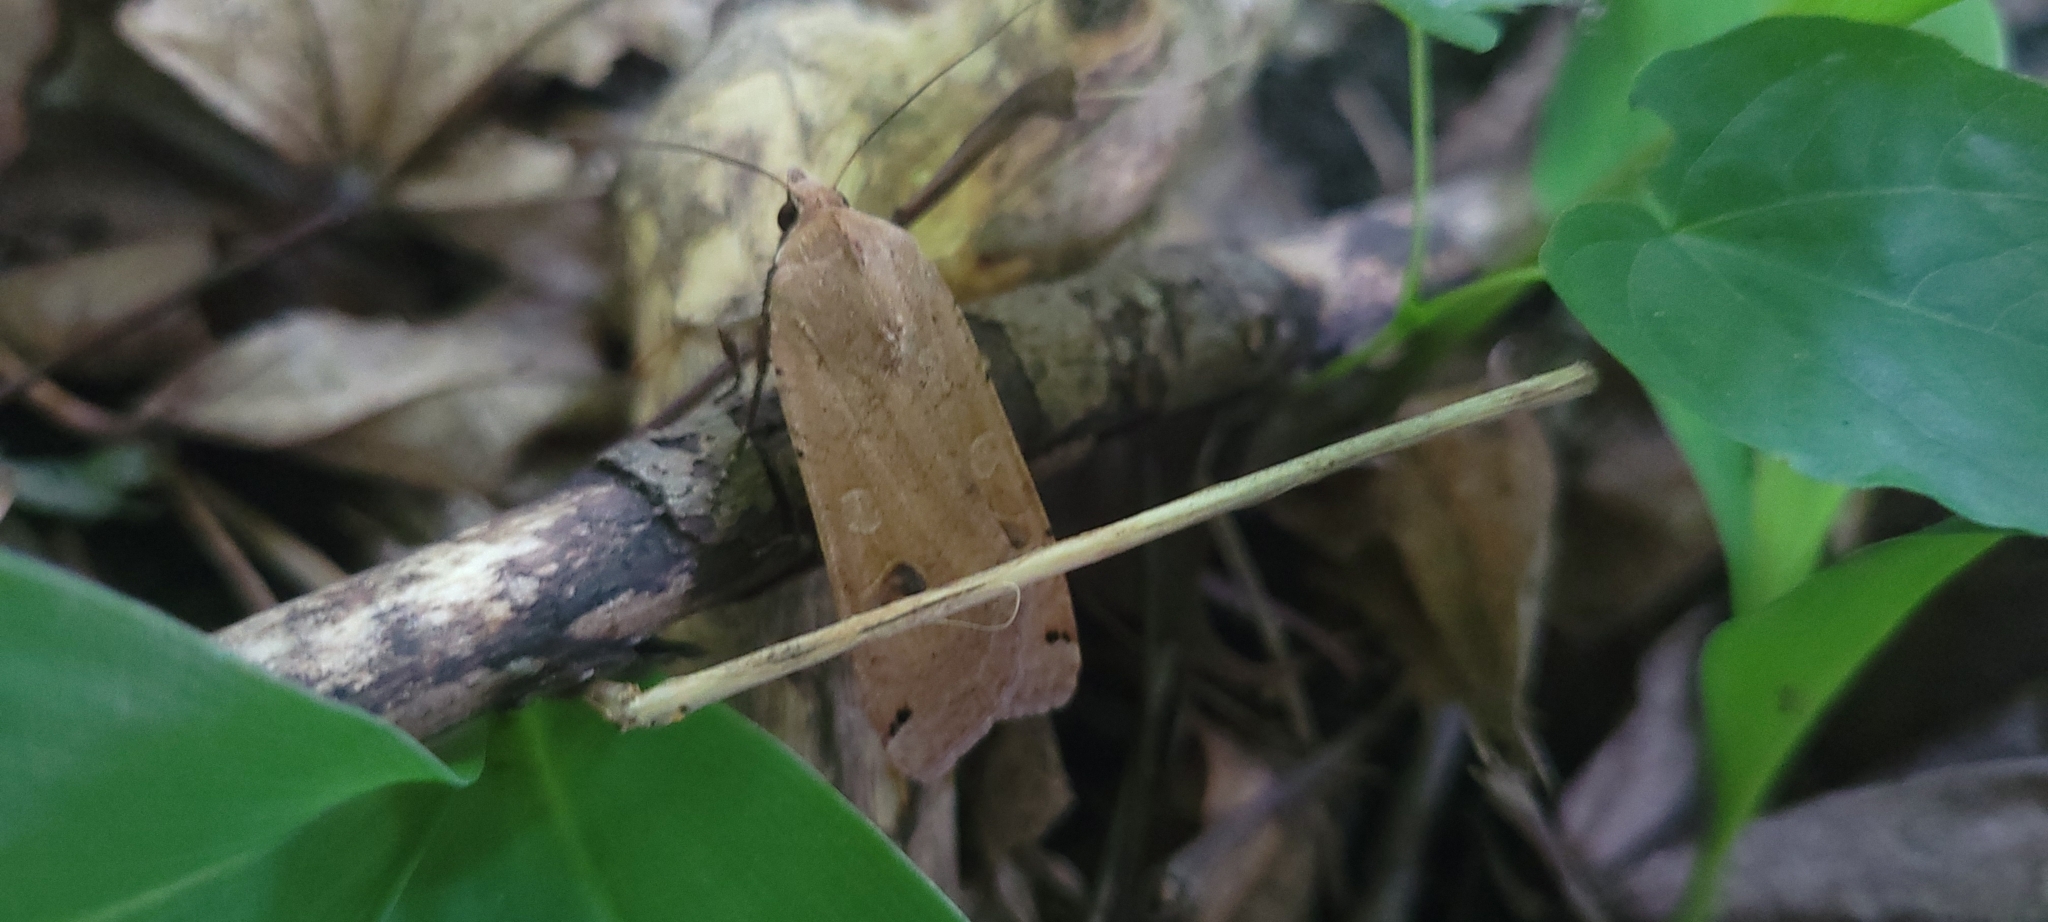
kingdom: Animalia
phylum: Arthropoda
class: Insecta
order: Lepidoptera
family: Noctuidae
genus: Noctua
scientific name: Noctua pronuba
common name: Large yellow underwing
